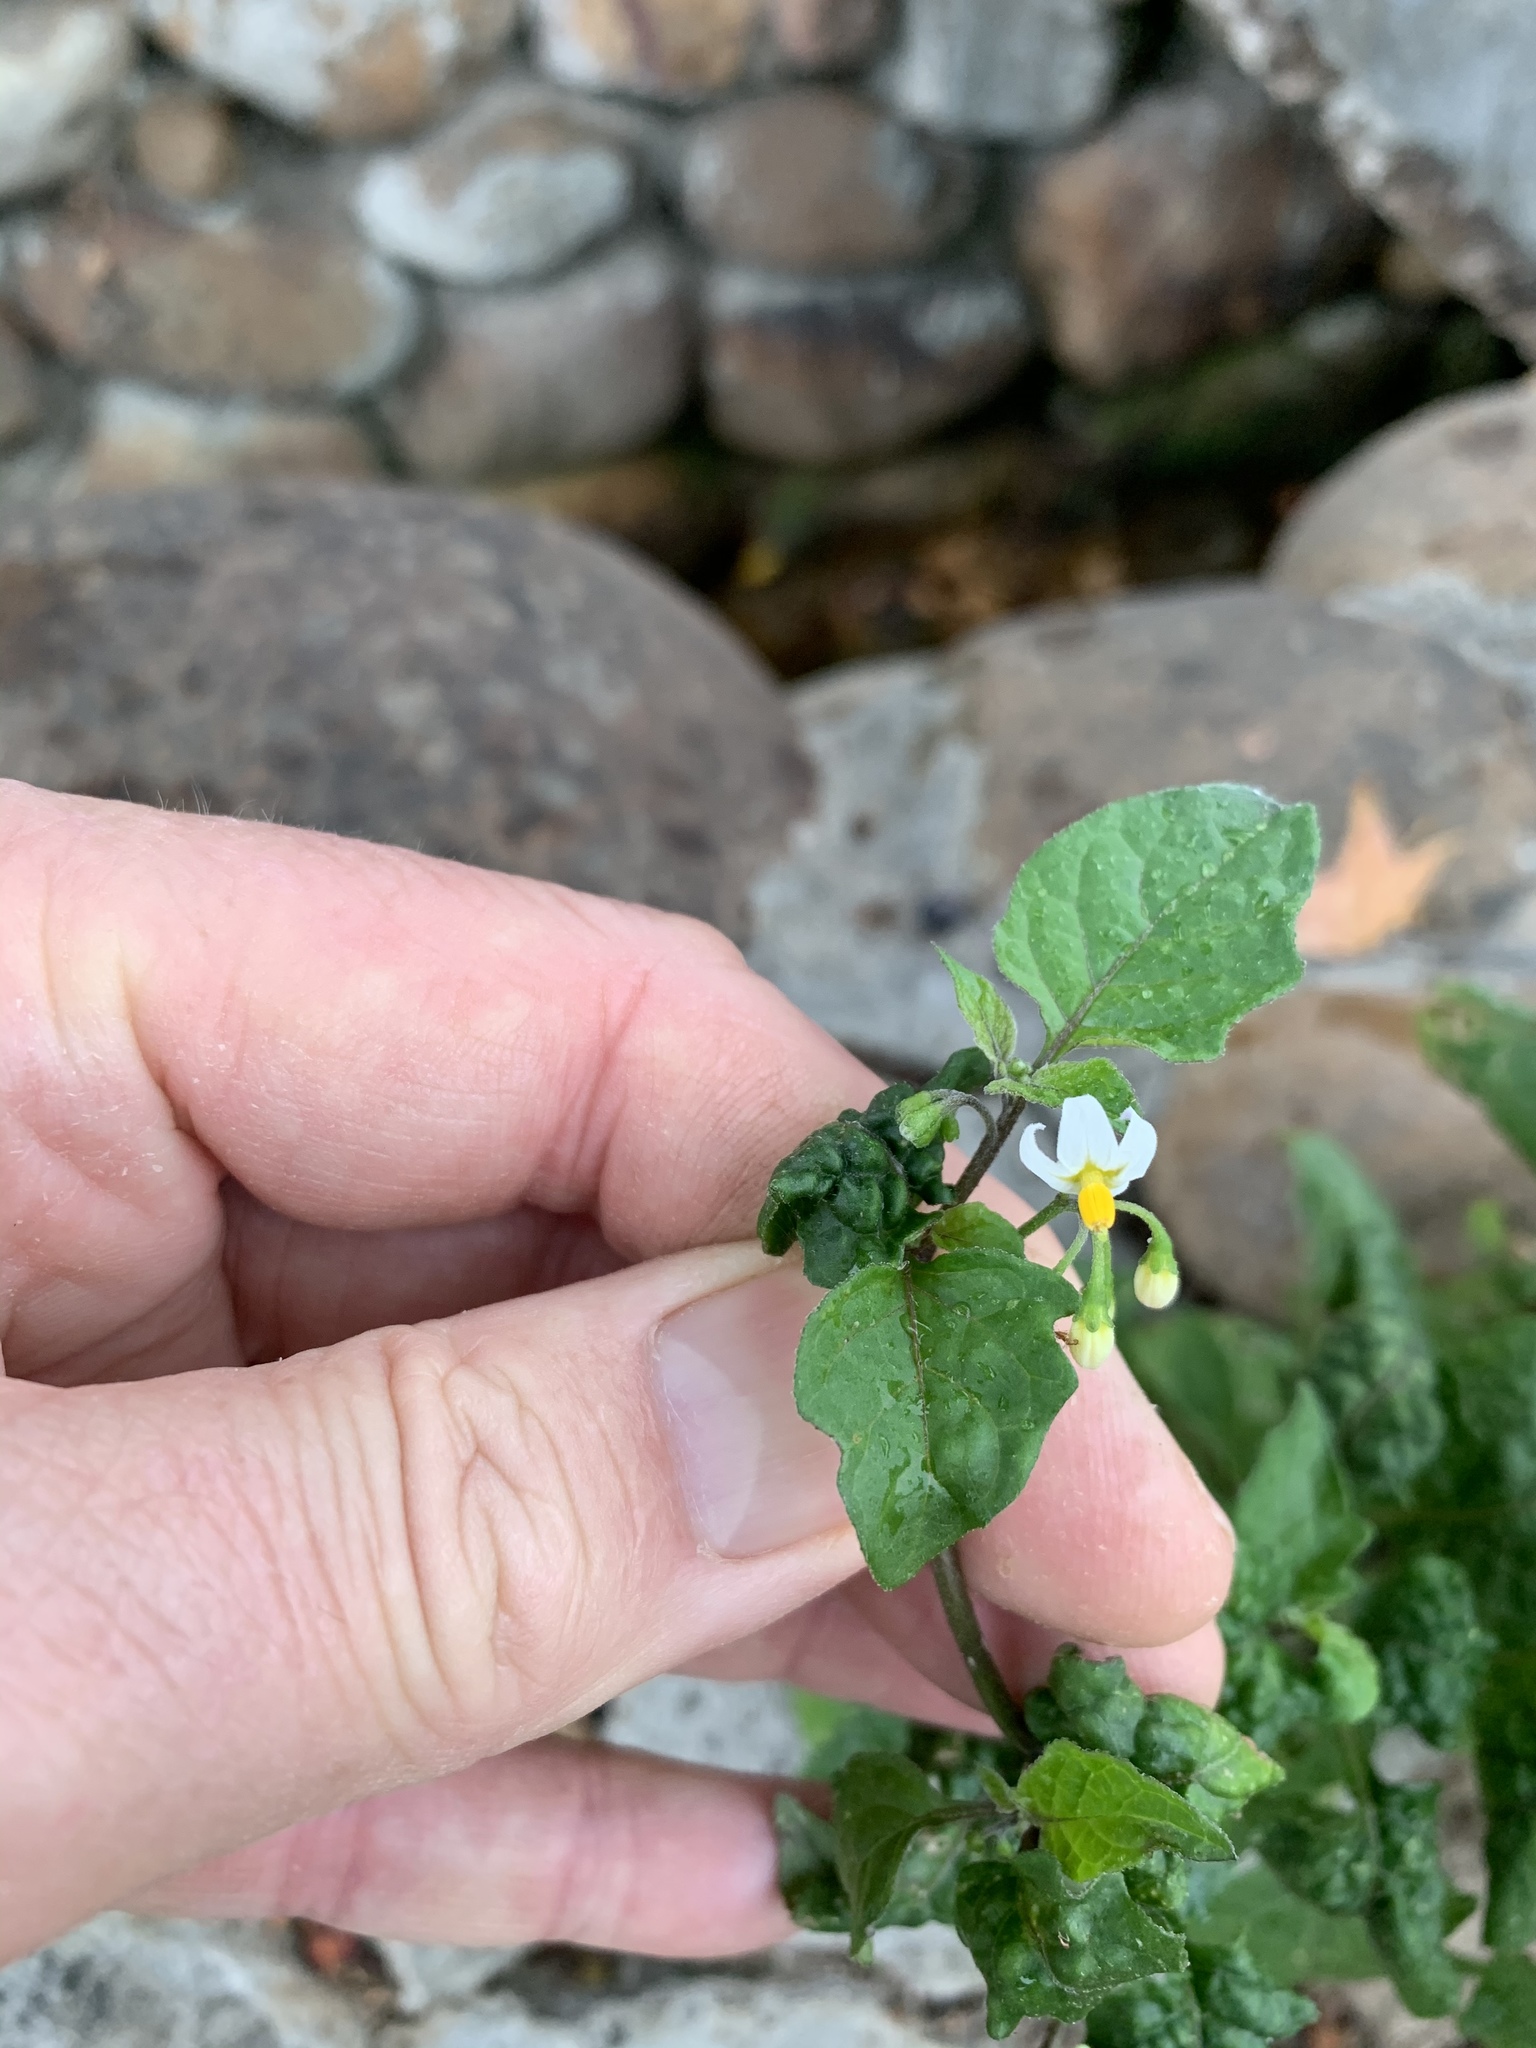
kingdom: Plantae
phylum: Tracheophyta
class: Magnoliopsida
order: Solanales
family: Solanaceae
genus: Solanum
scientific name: Solanum nigrum
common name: Black nightshade
